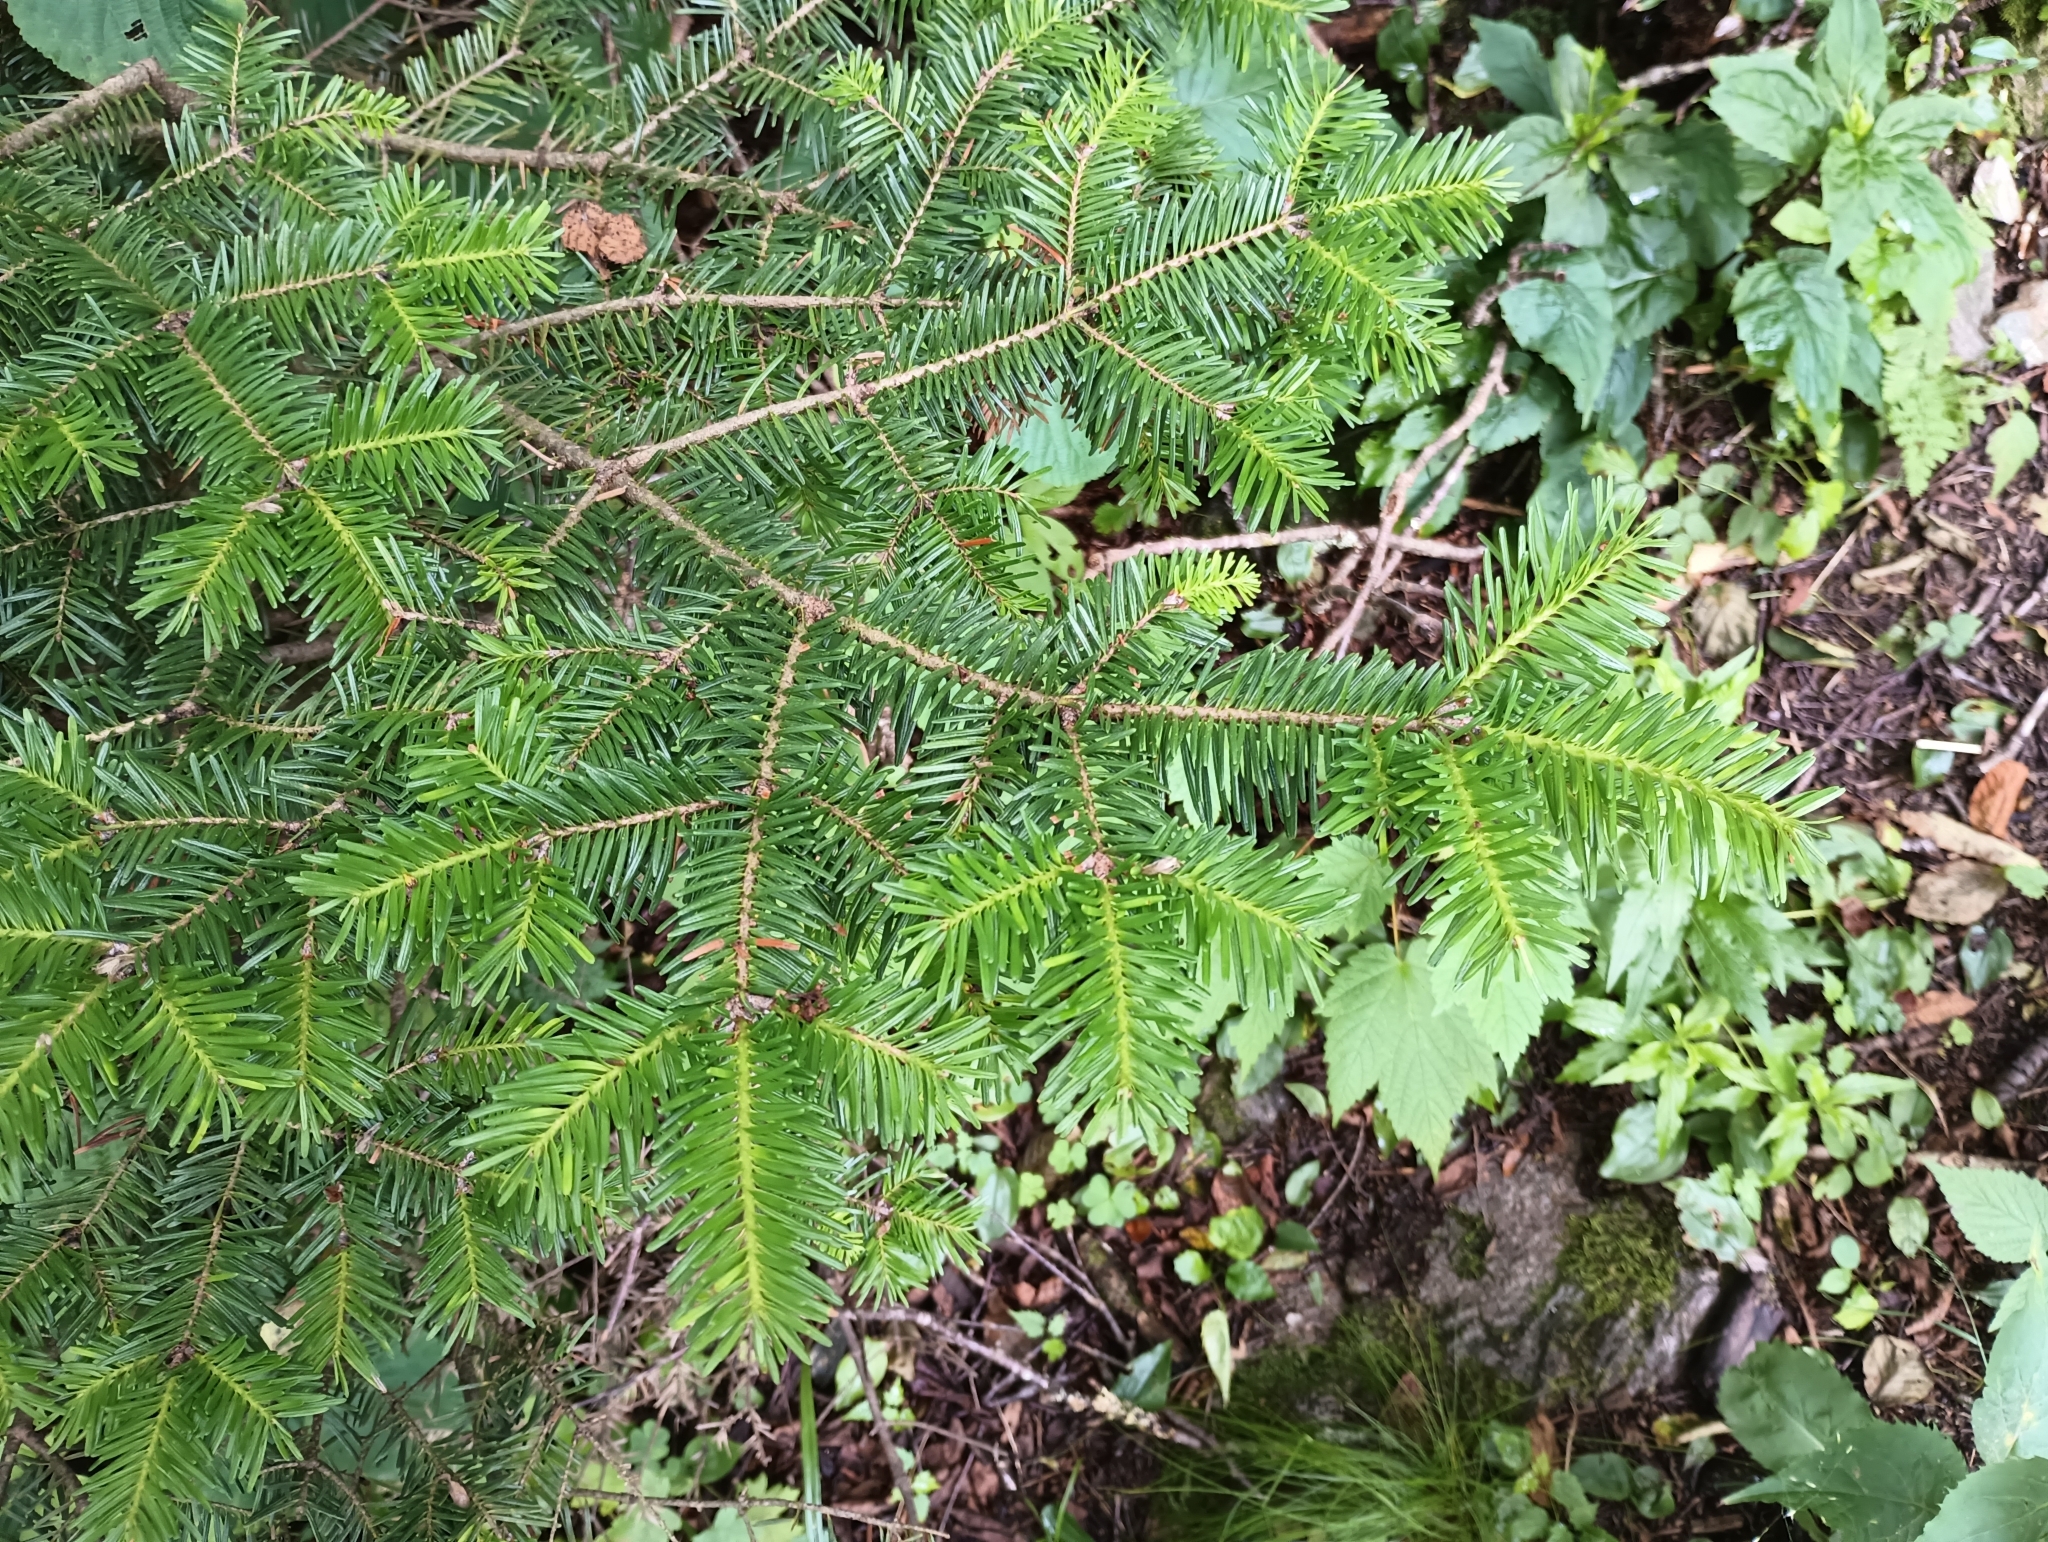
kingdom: Plantae
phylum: Tracheophyta
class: Pinopsida
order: Pinales
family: Pinaceae
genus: Abies
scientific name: Abies balsamea
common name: Balsam fir
